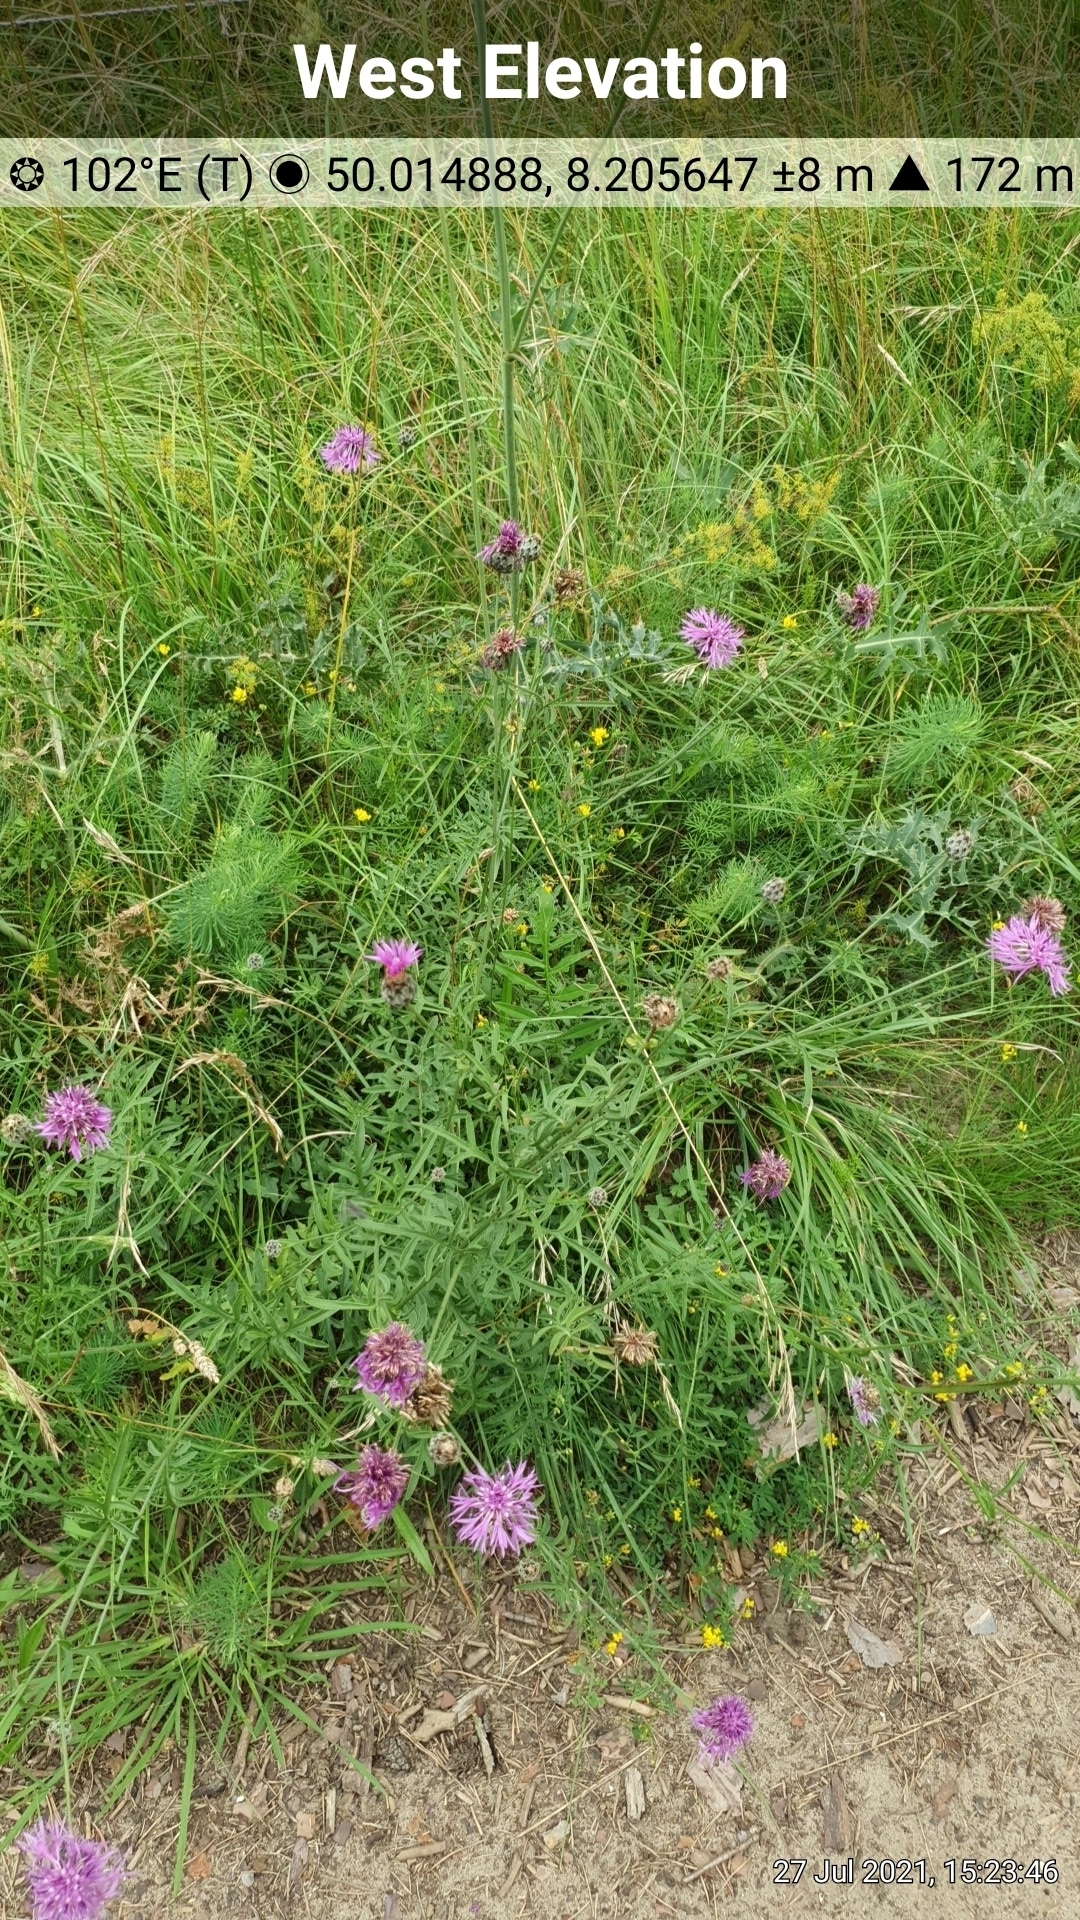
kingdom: Plantae
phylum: Tracheophyta
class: Magnoliopsida
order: Asterales
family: Asteraceae
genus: Centaurea
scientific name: Centaurea scabiosa
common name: Greater knapweed
